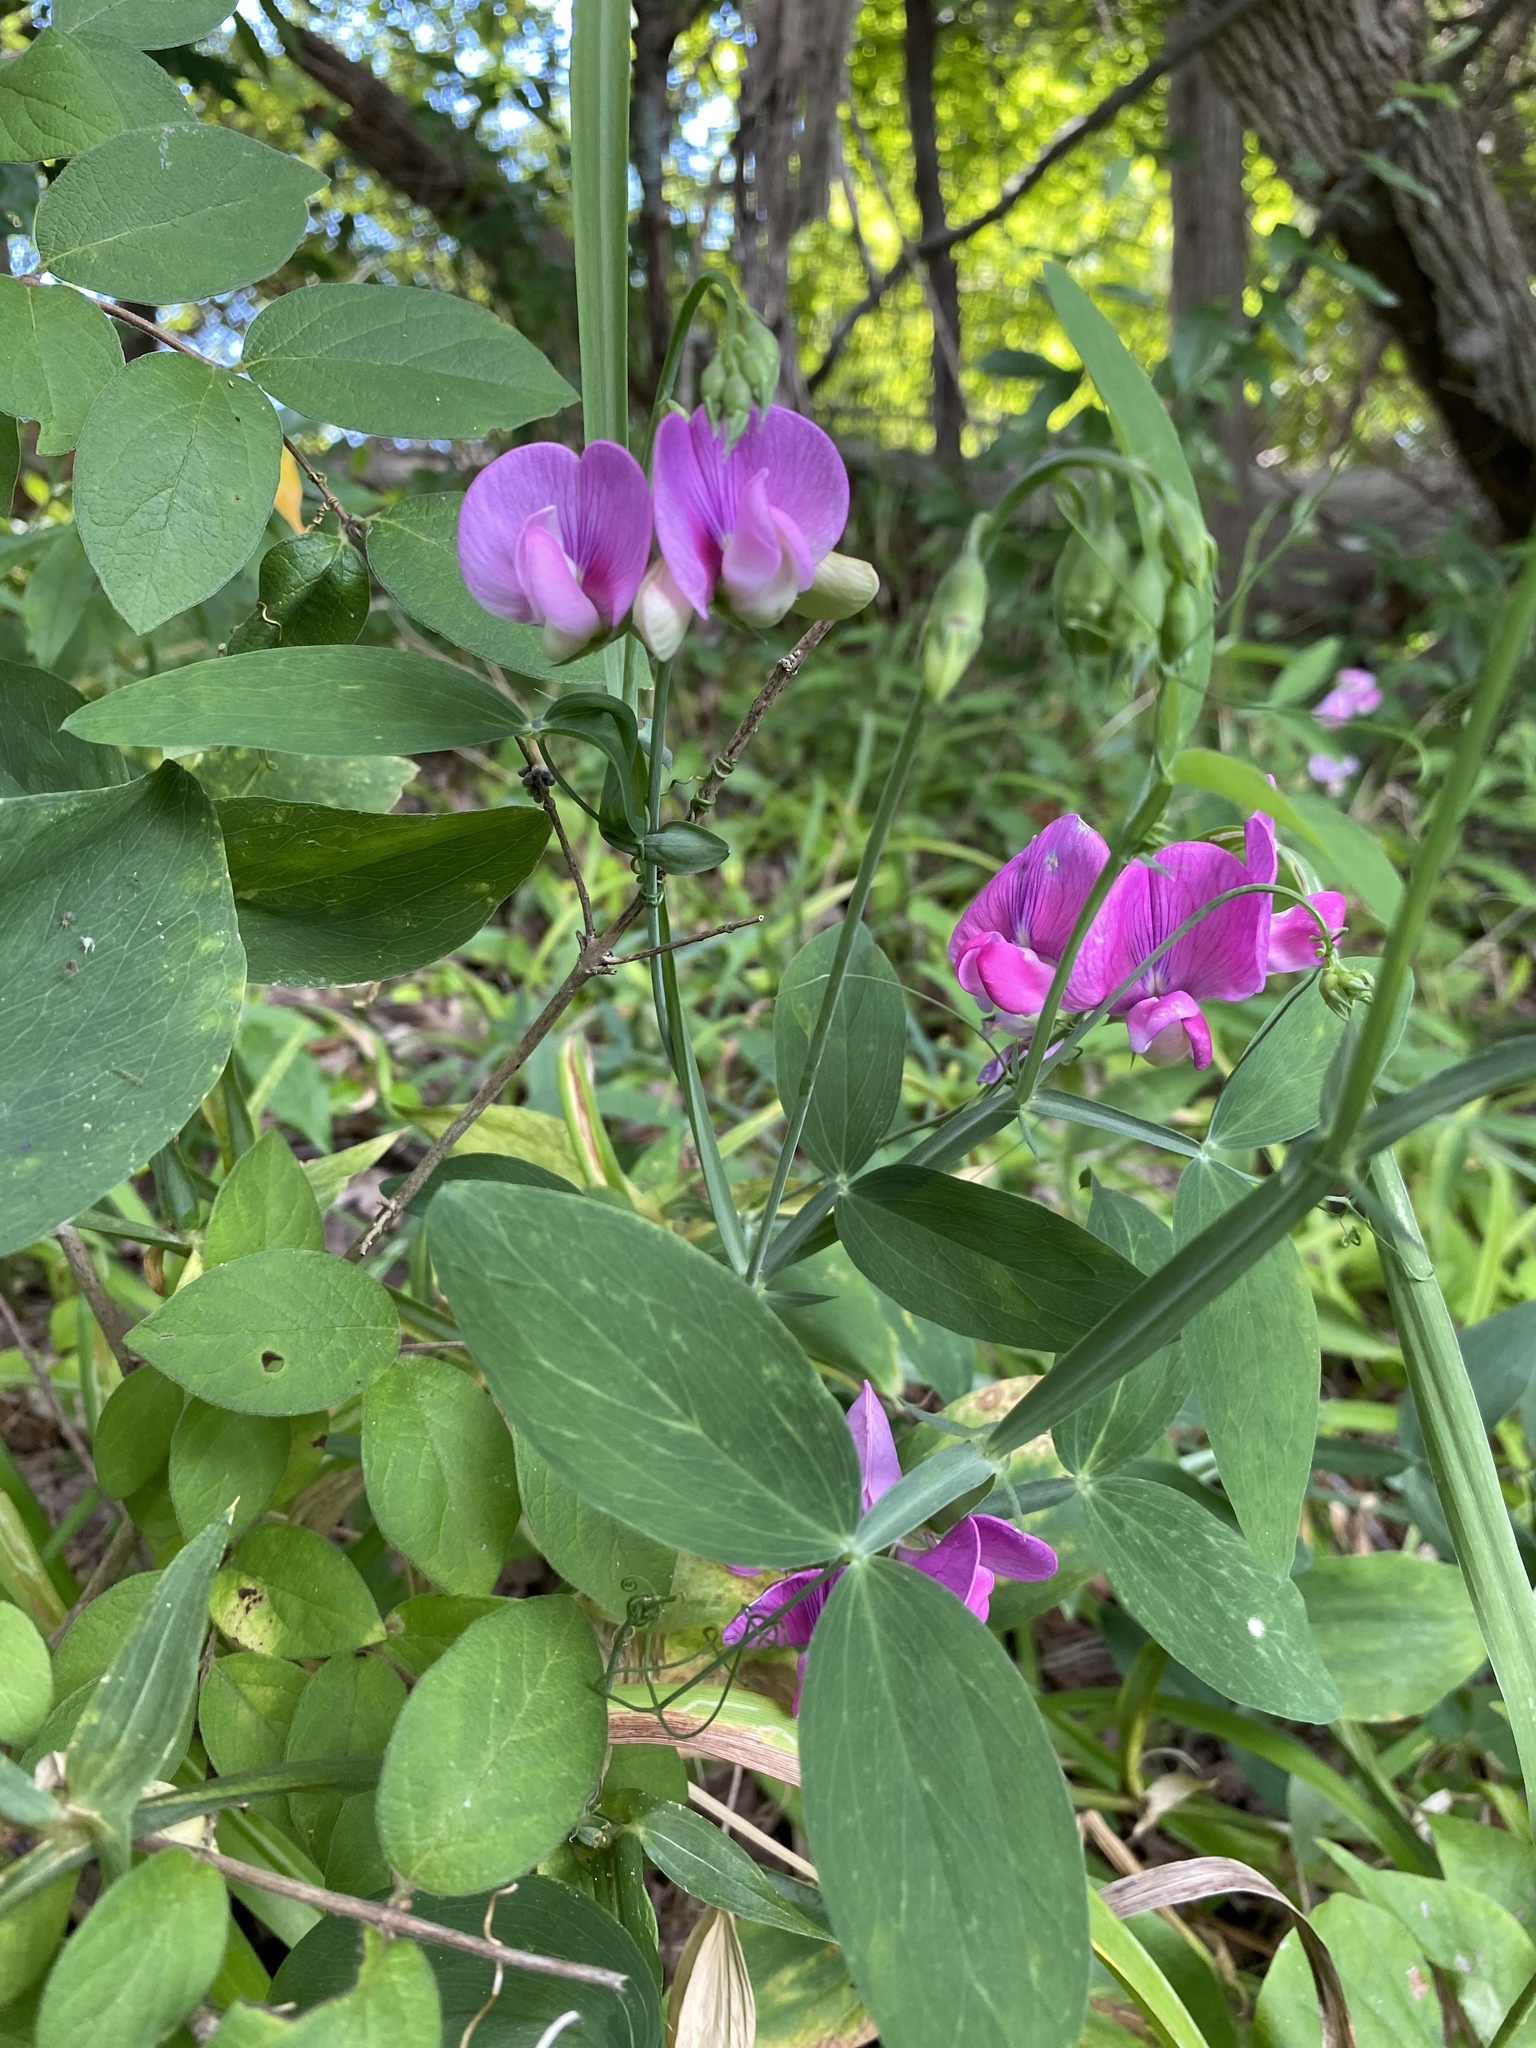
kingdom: Plantae
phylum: Tracheophyta
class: Magnoliopsida
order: Fabales
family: Fabaceae
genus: Lathyrus
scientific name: Lathyrus latifolius
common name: Perennial pea
